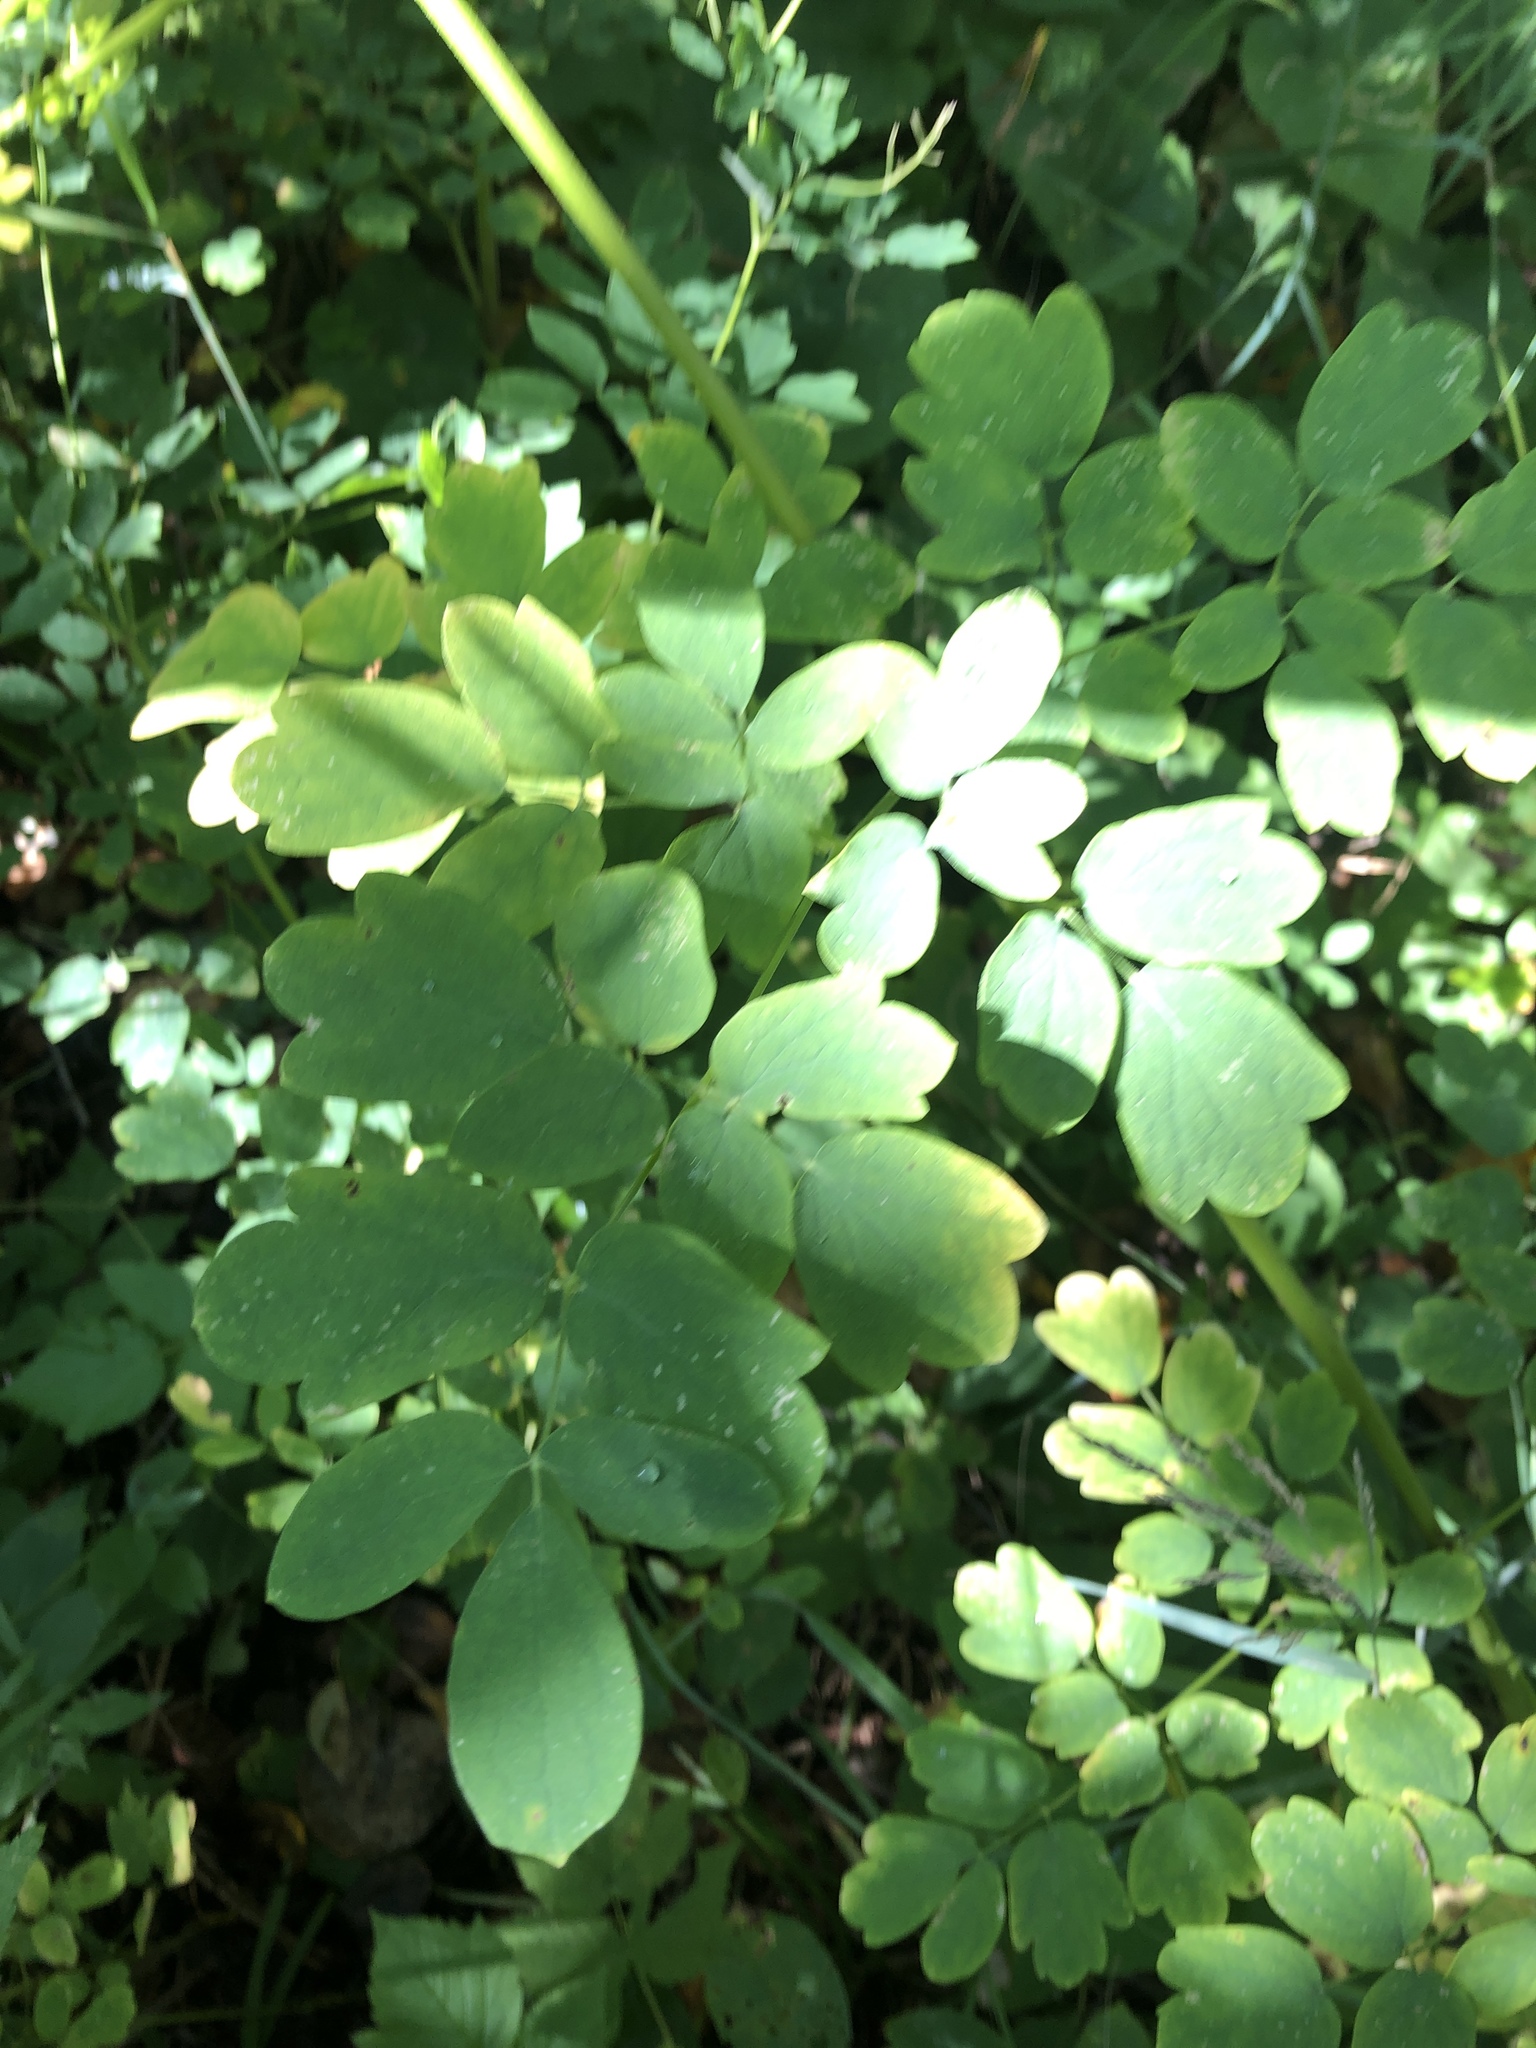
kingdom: Plantae
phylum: Tracheophyta
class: Magnoliopsida
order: Ranunculales
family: Ranunculaceae
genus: Thalictrum
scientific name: Thalictrum dasycarpum
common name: Purple meadow-rue
